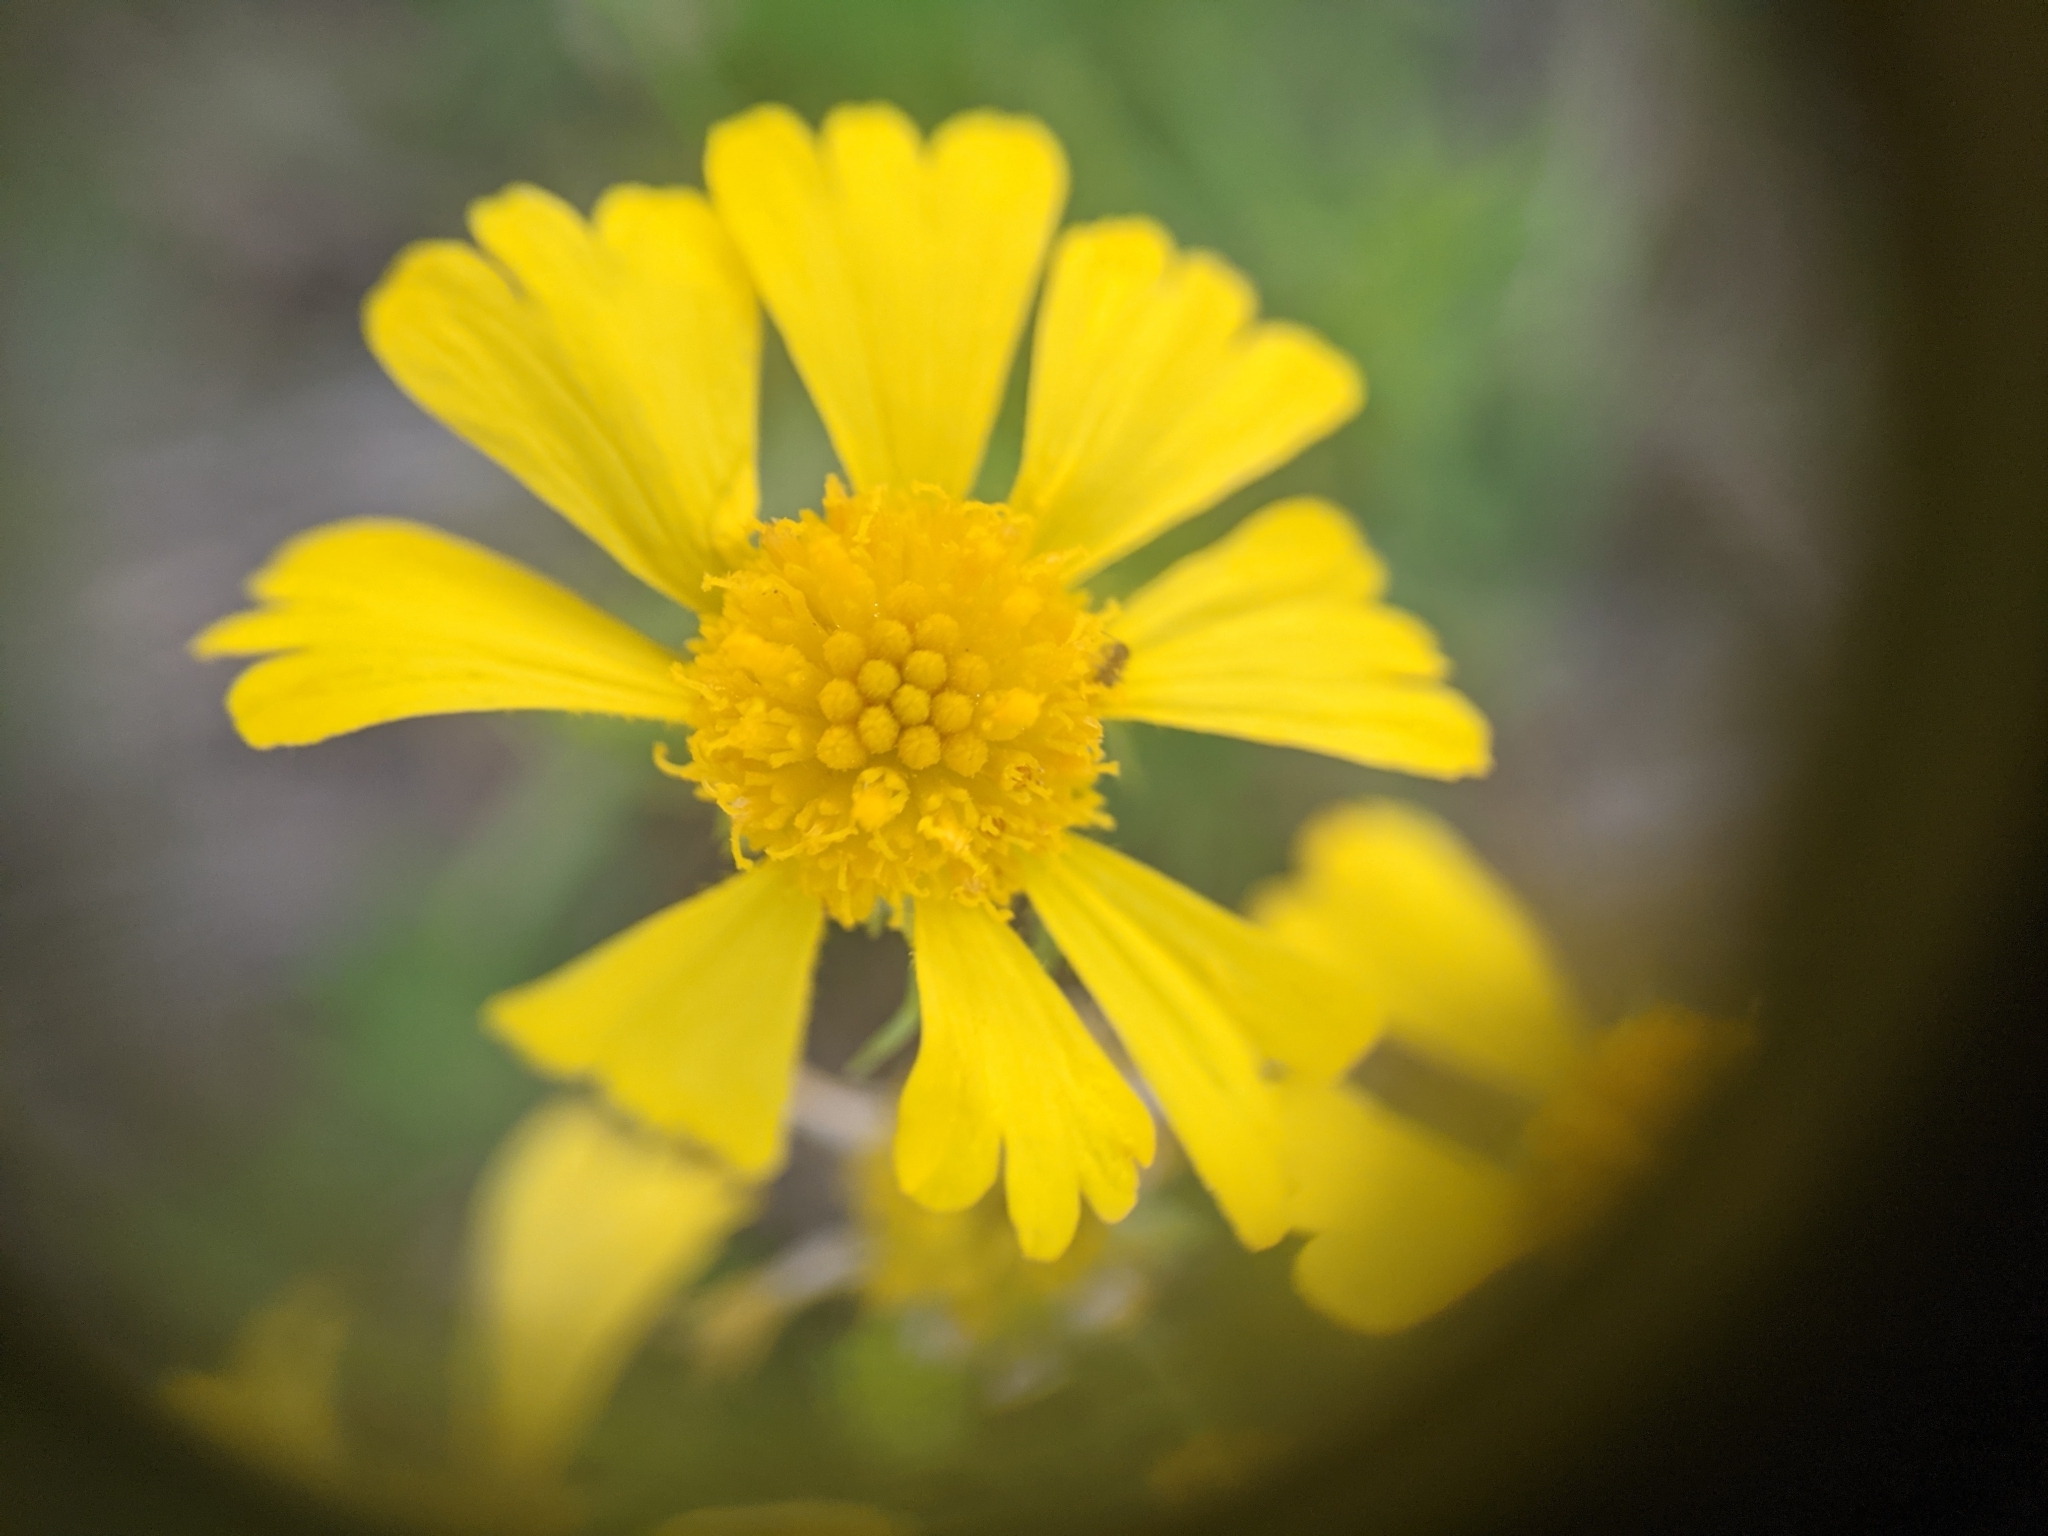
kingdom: Plantae
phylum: Tracheophyta
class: Magnoliopsida
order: Asterales
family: Asteraceae
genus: Helenium
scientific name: Helenium amarum
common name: Bitter sneezeweed
